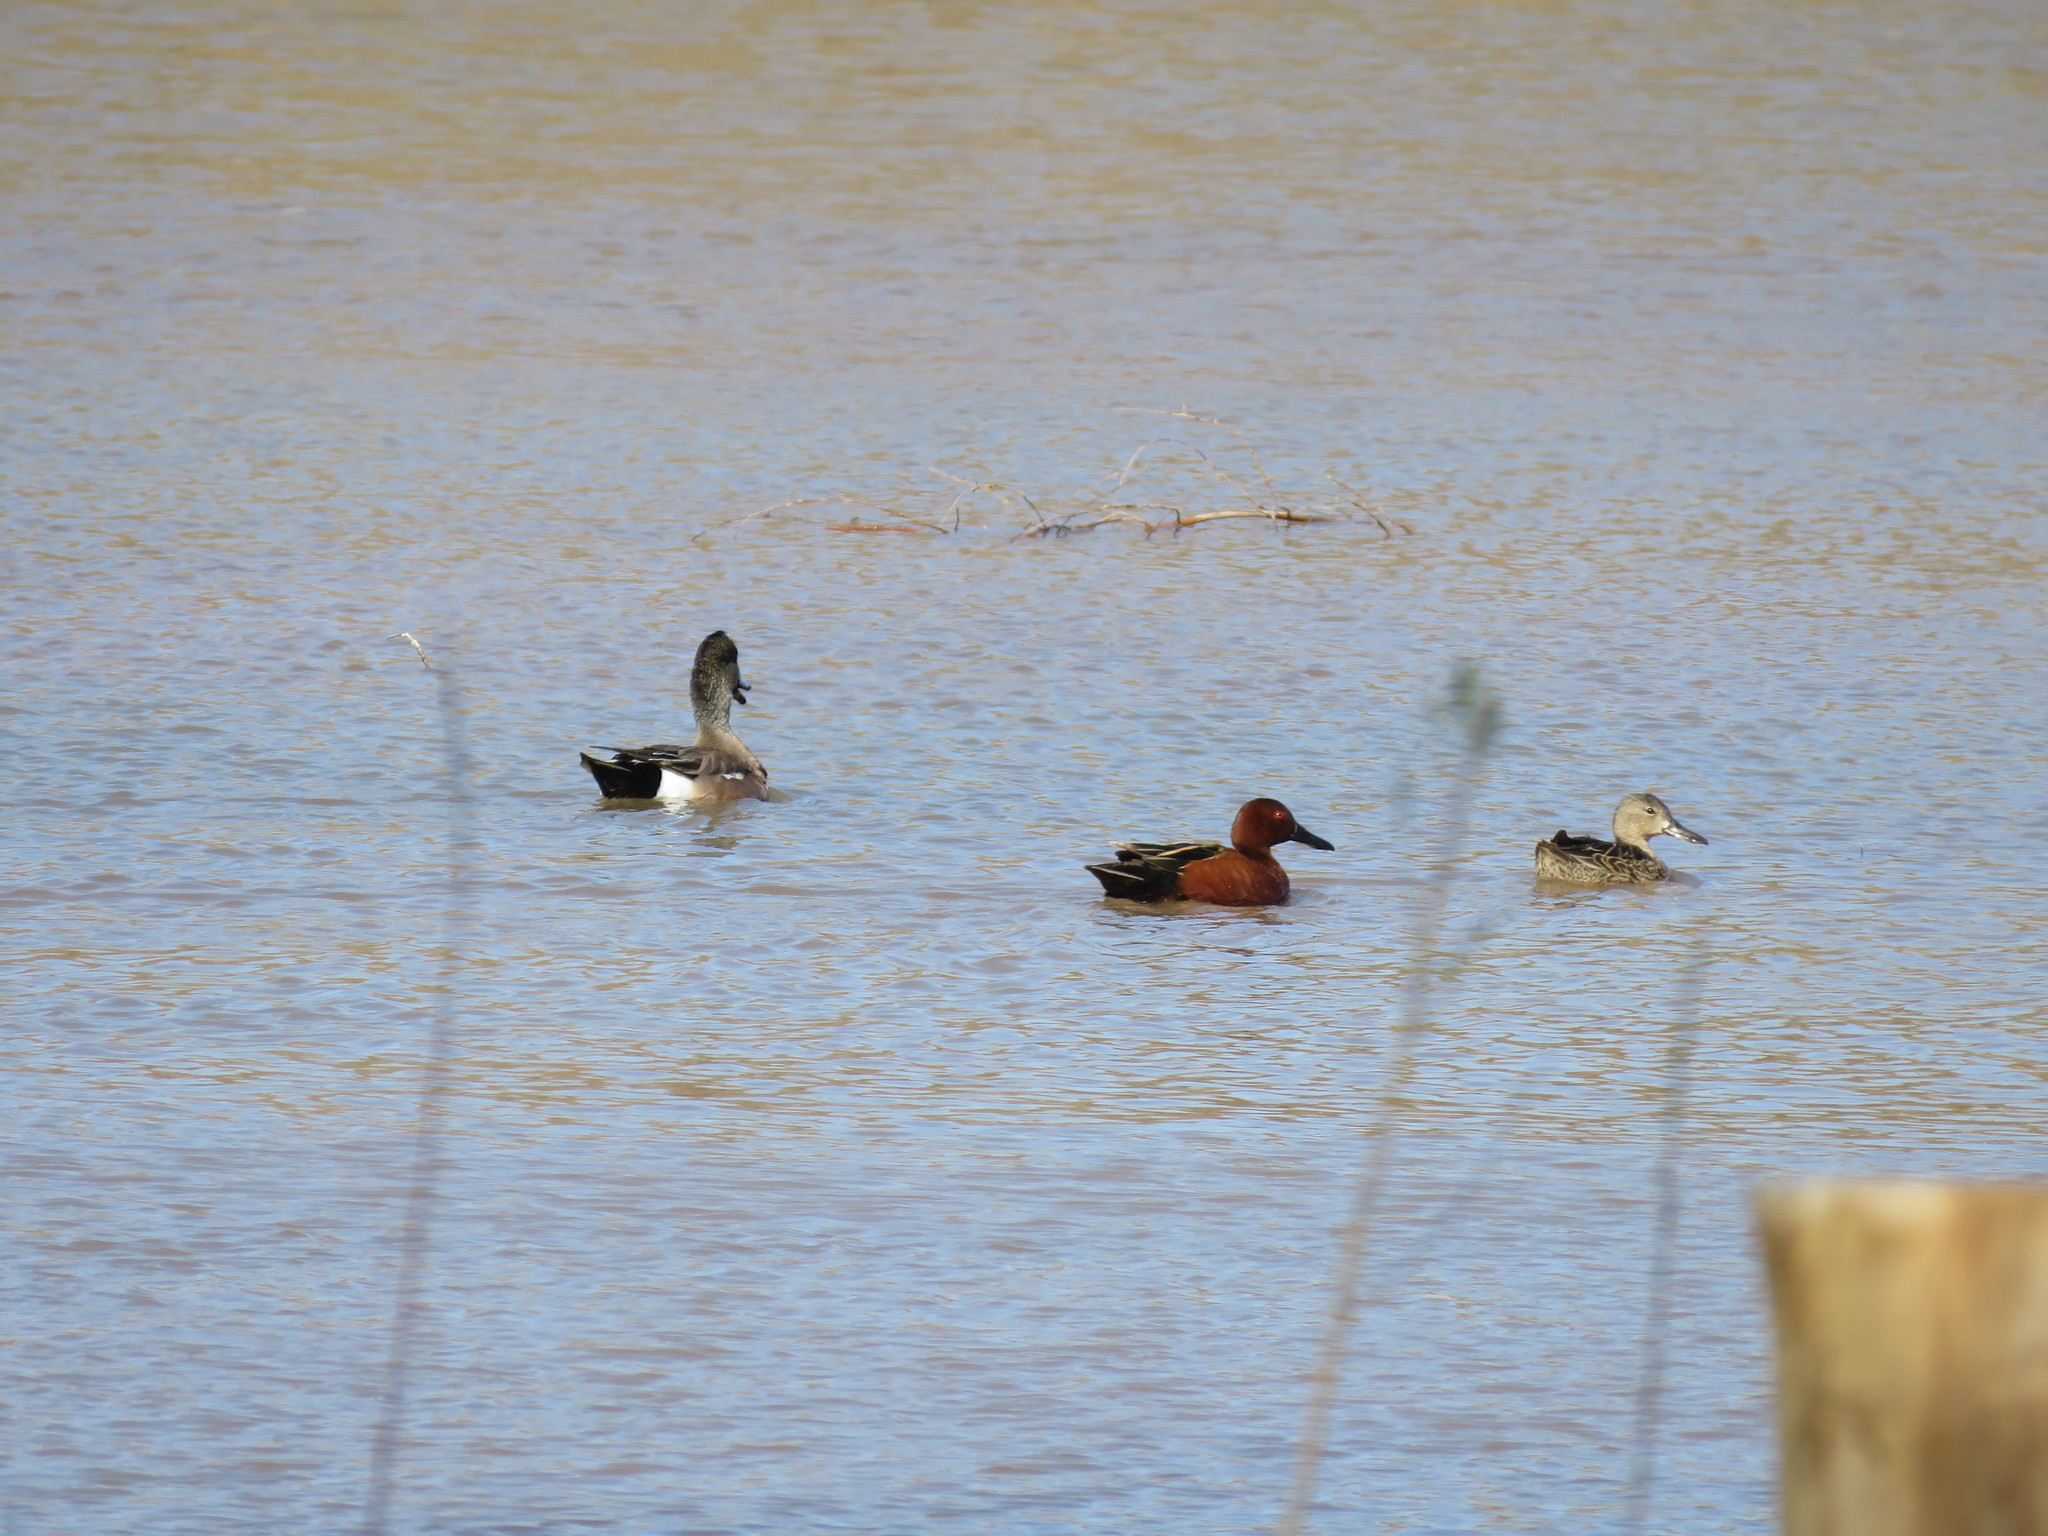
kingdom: Animalia
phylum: Chordata
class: Aves
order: Anseriformes
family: Anatidae
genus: Spatula
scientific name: Spatula cyanoptera
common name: Cinnamon teal
